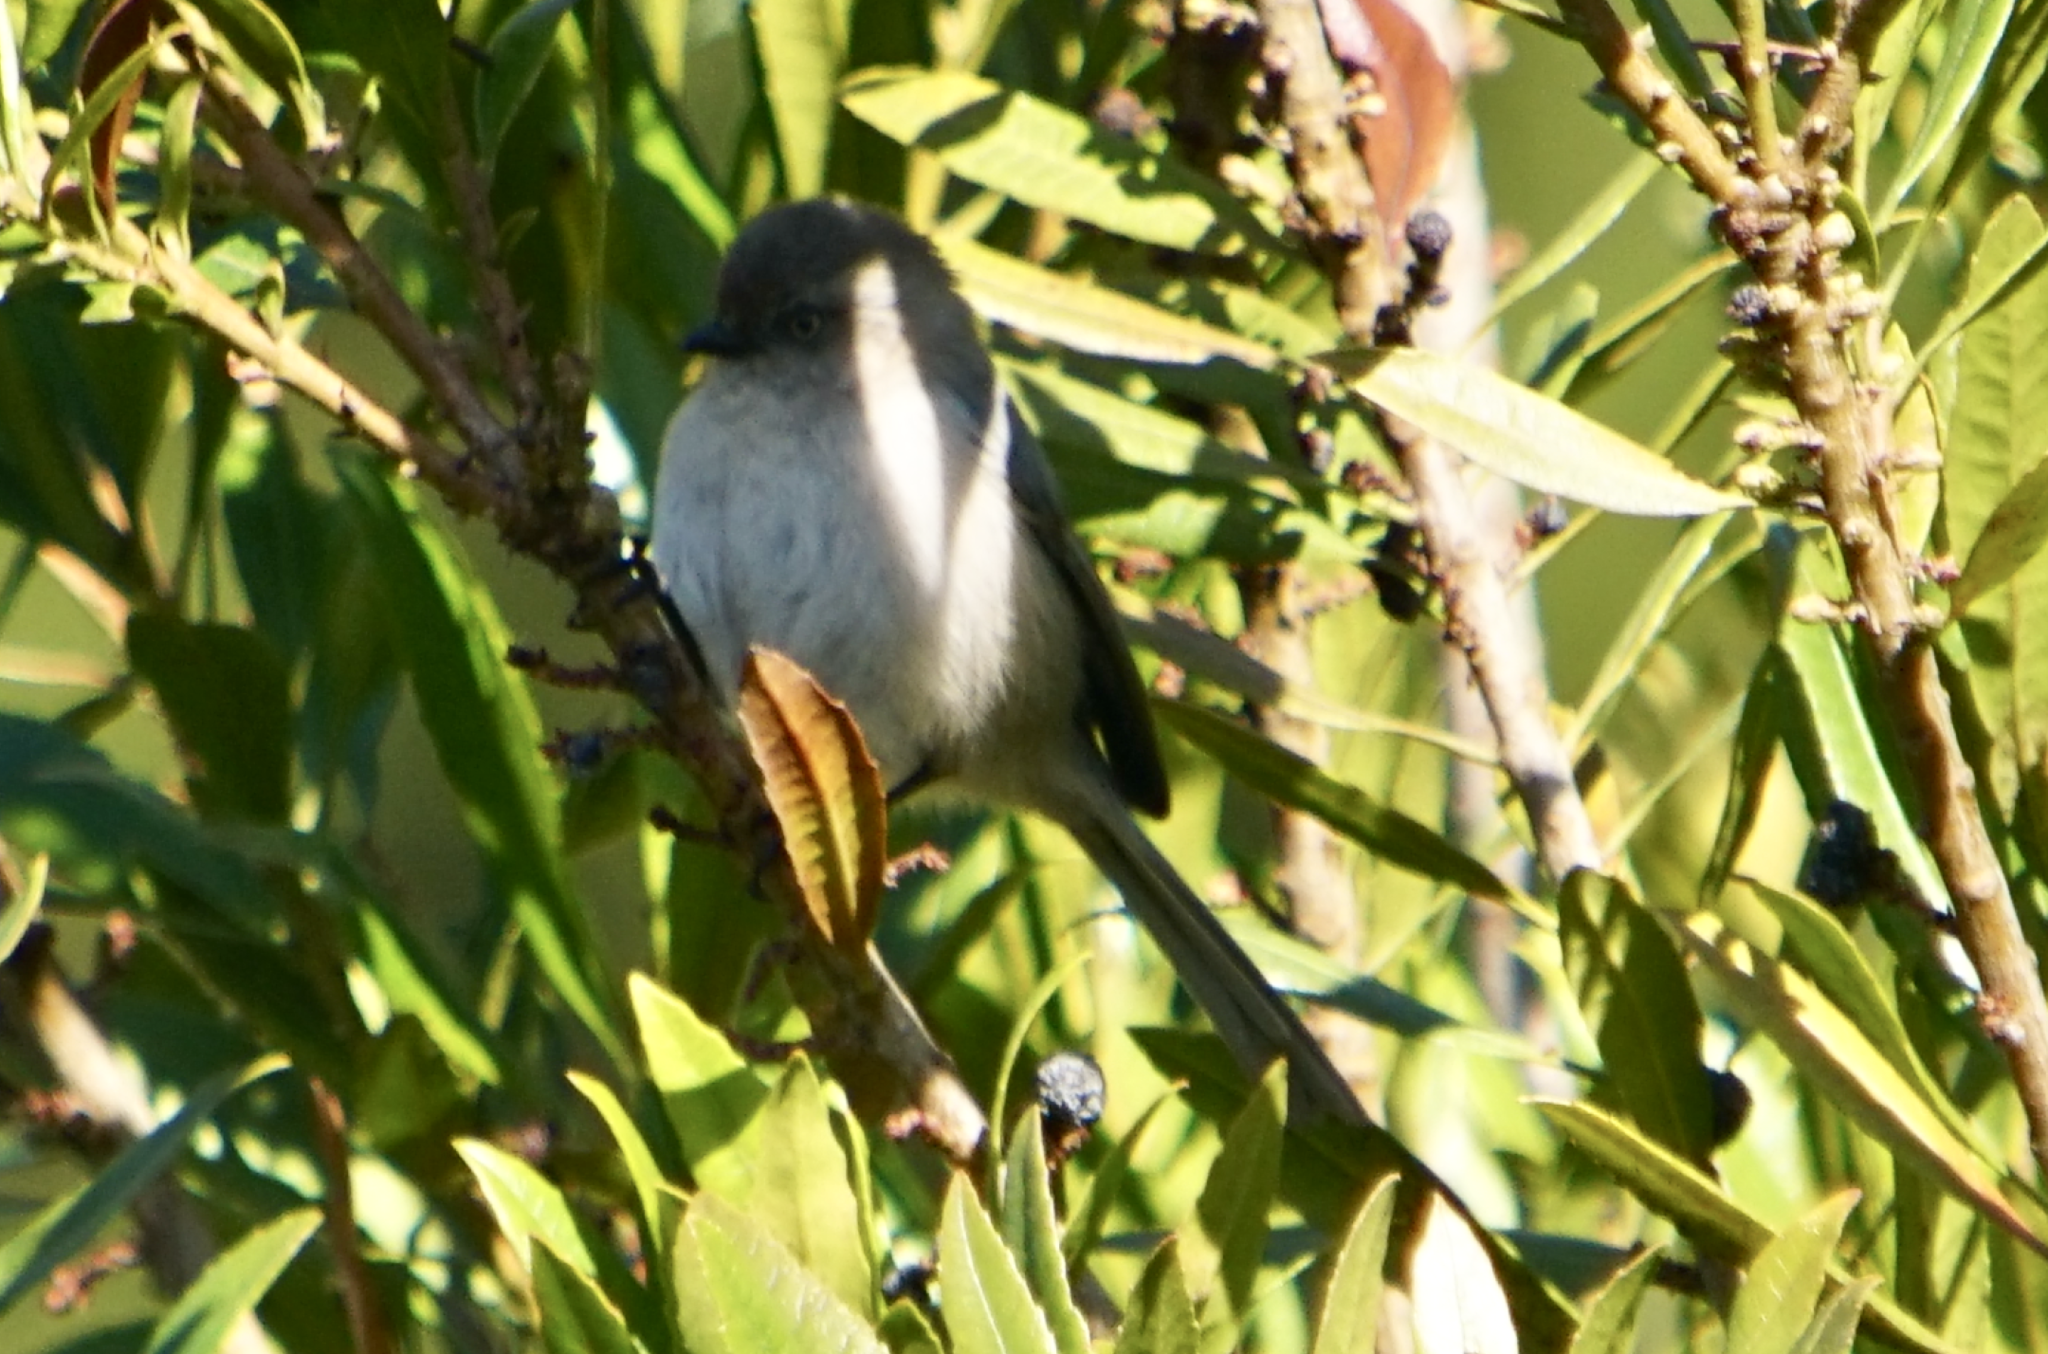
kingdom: Animalia
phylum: Chordata
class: Aves
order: Passeriformes
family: Aegithalidae
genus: Psaltriparus
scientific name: Psaltriparus minimus
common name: American bushtit
